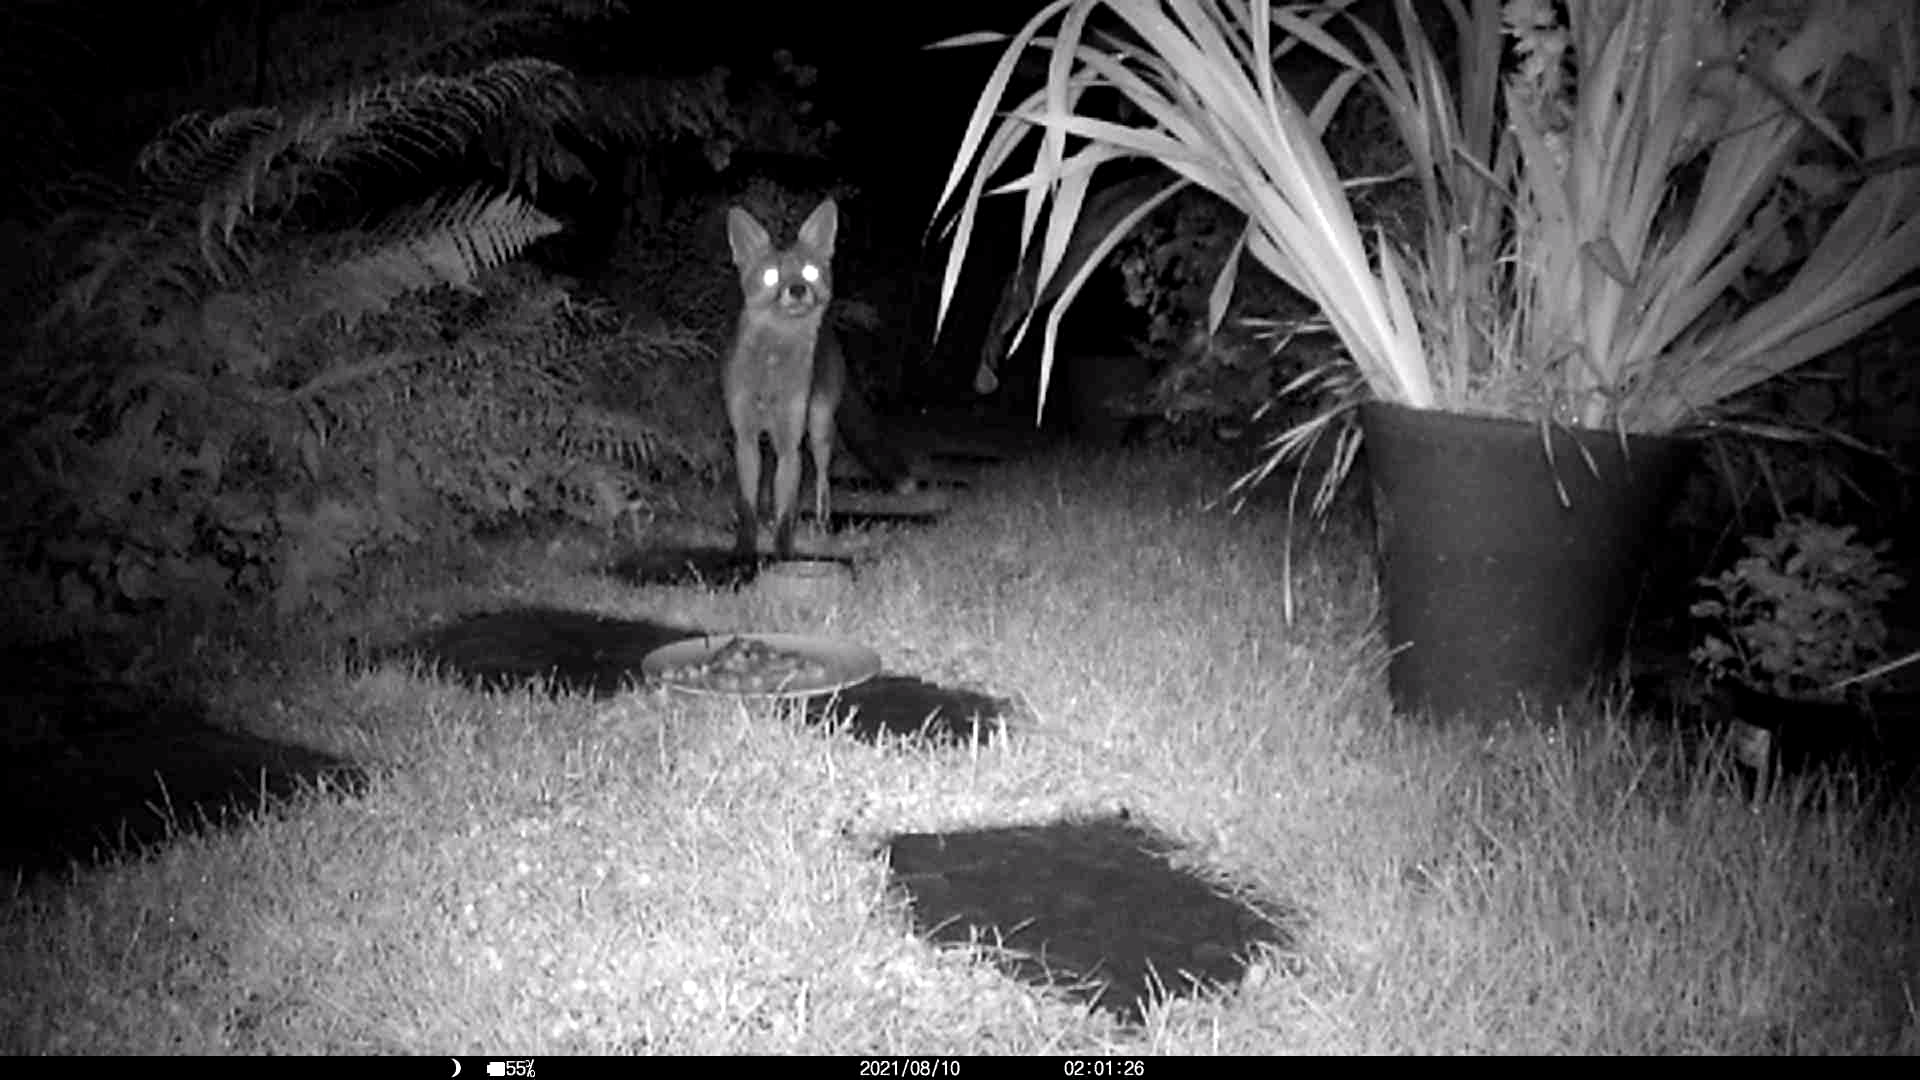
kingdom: Animalia
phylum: Chordata
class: Mammalia
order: Carnivora
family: Canidae
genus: Vulpes
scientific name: Vulpes vulpes
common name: Red fox
